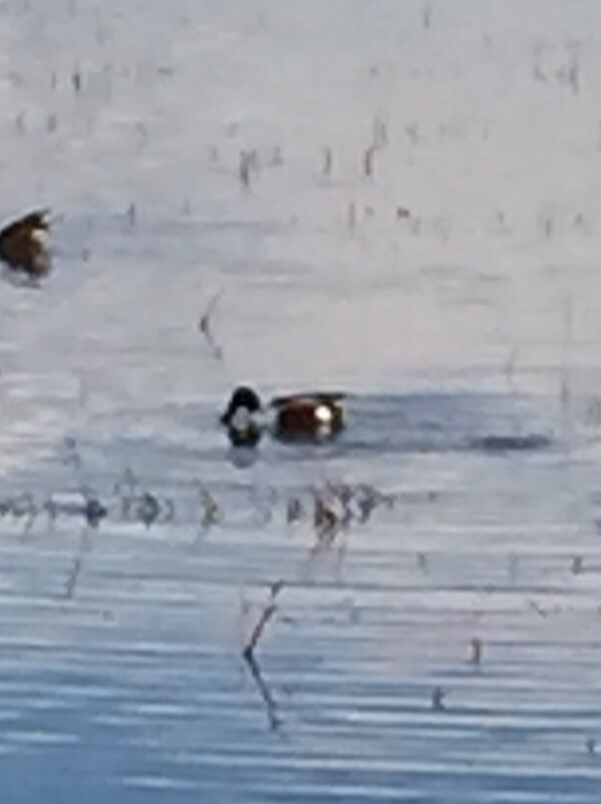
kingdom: Animalia
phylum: Chordata
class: Aves
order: Anseriformes
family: Anatidae
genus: Spatula
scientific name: Spatula clypeata
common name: Northern shoveler
